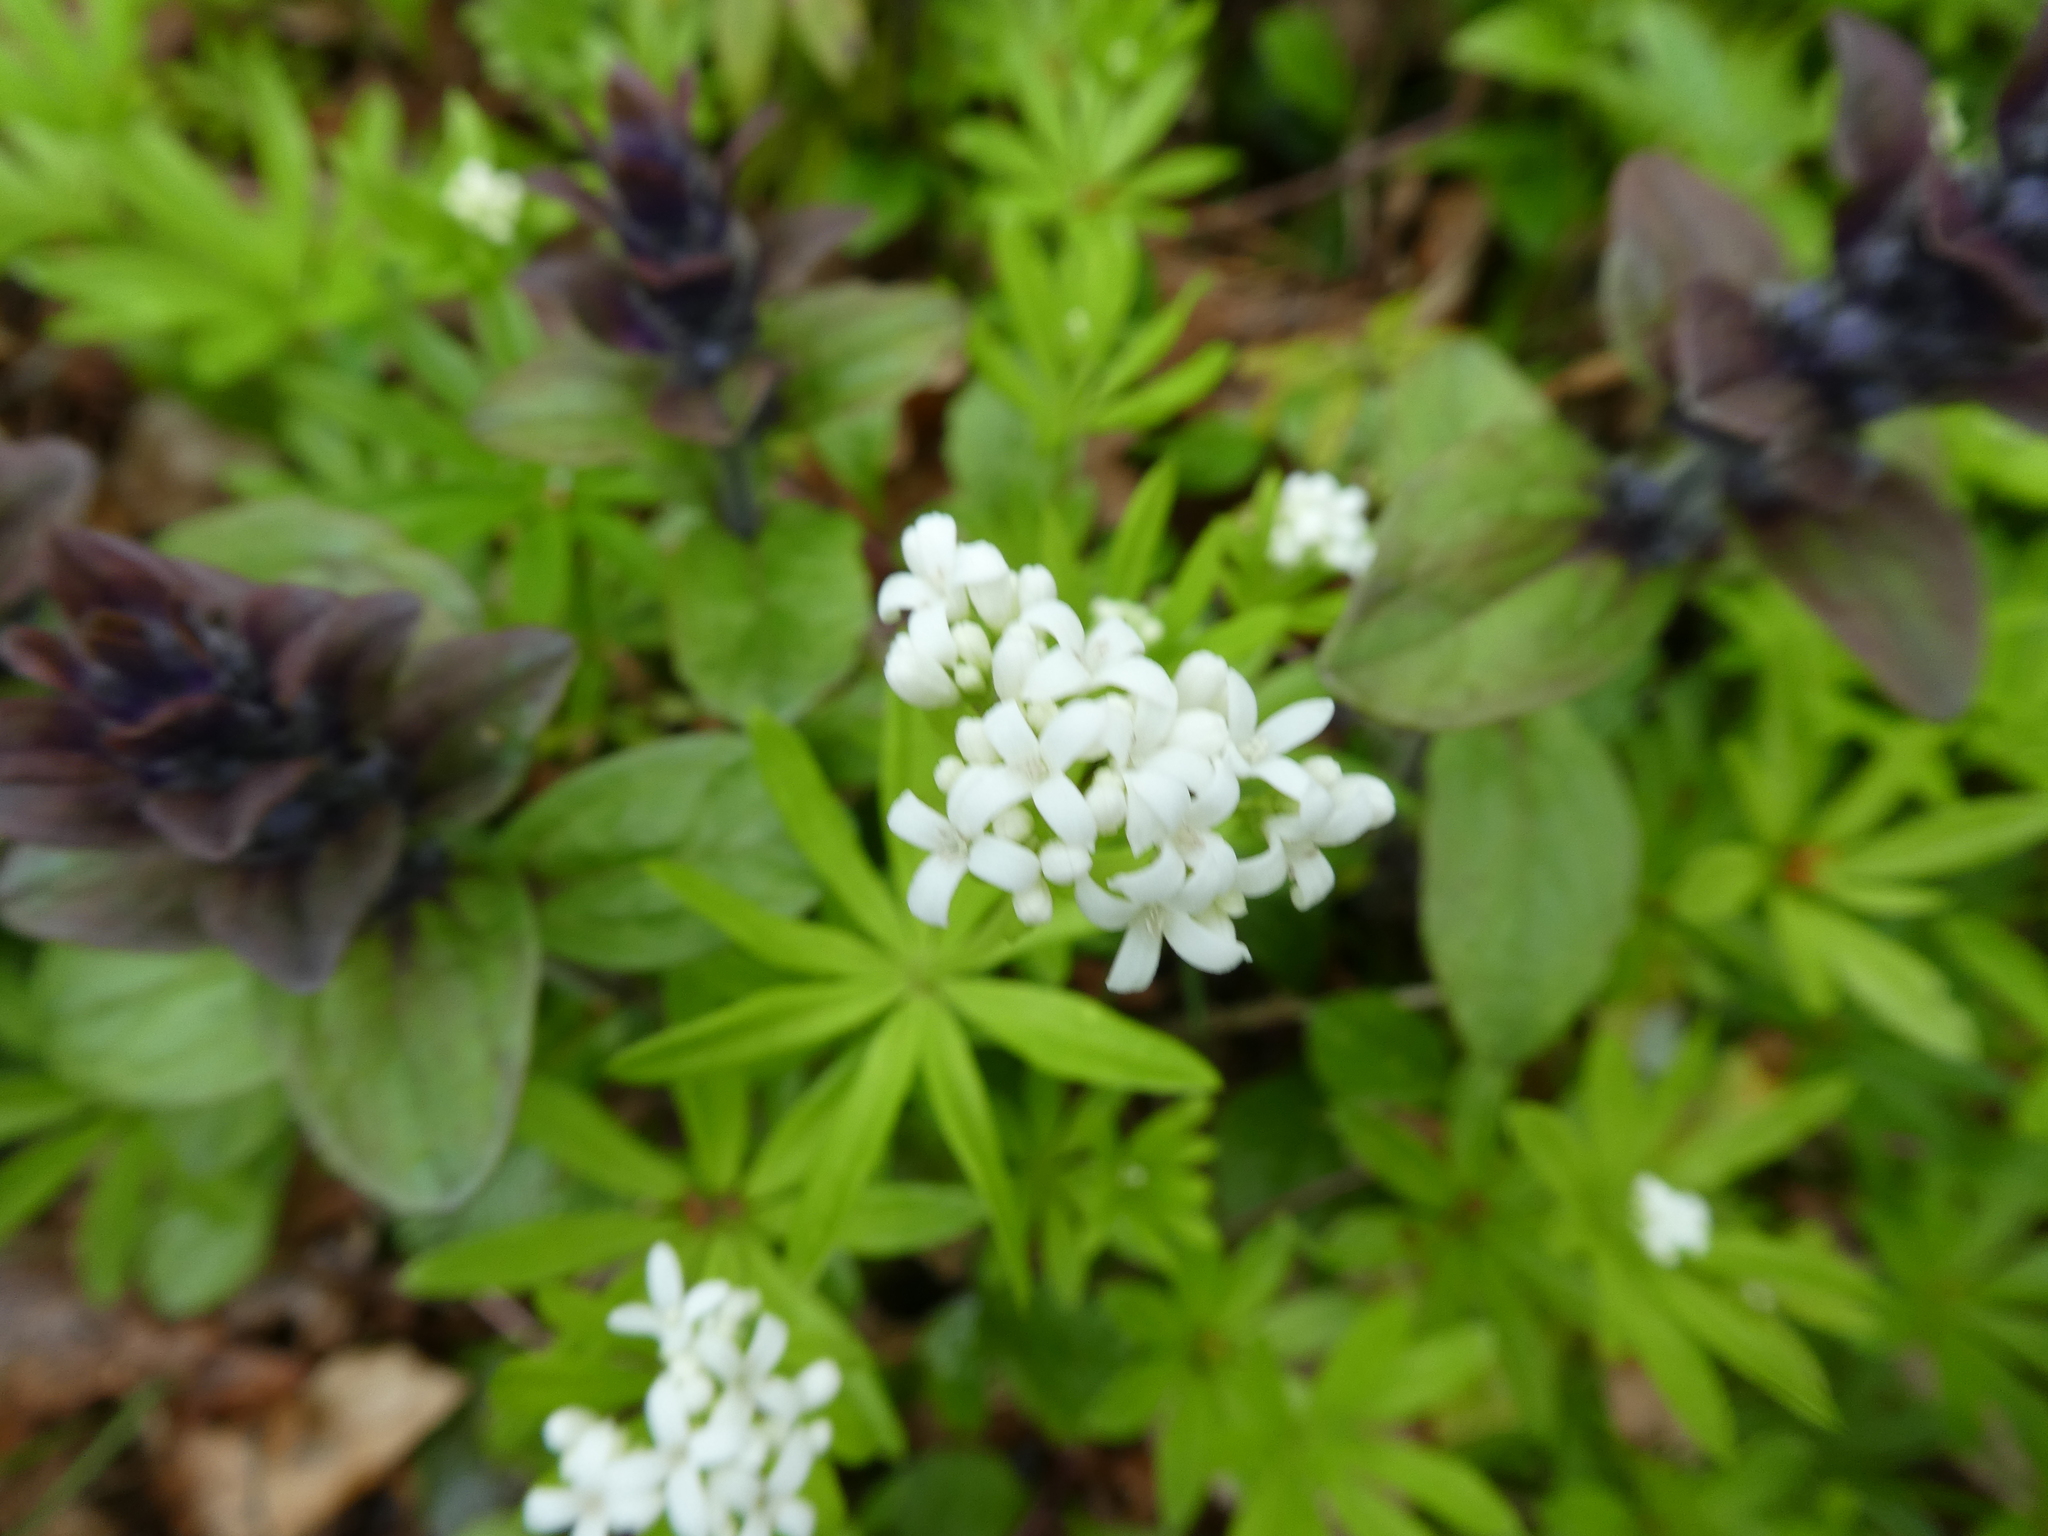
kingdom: Plantae
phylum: Tracheophyta
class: Magnoliopsida
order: Gentianales
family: Rubiaceae
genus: Galium
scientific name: Galium odoratum
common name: Sweet woodruff
